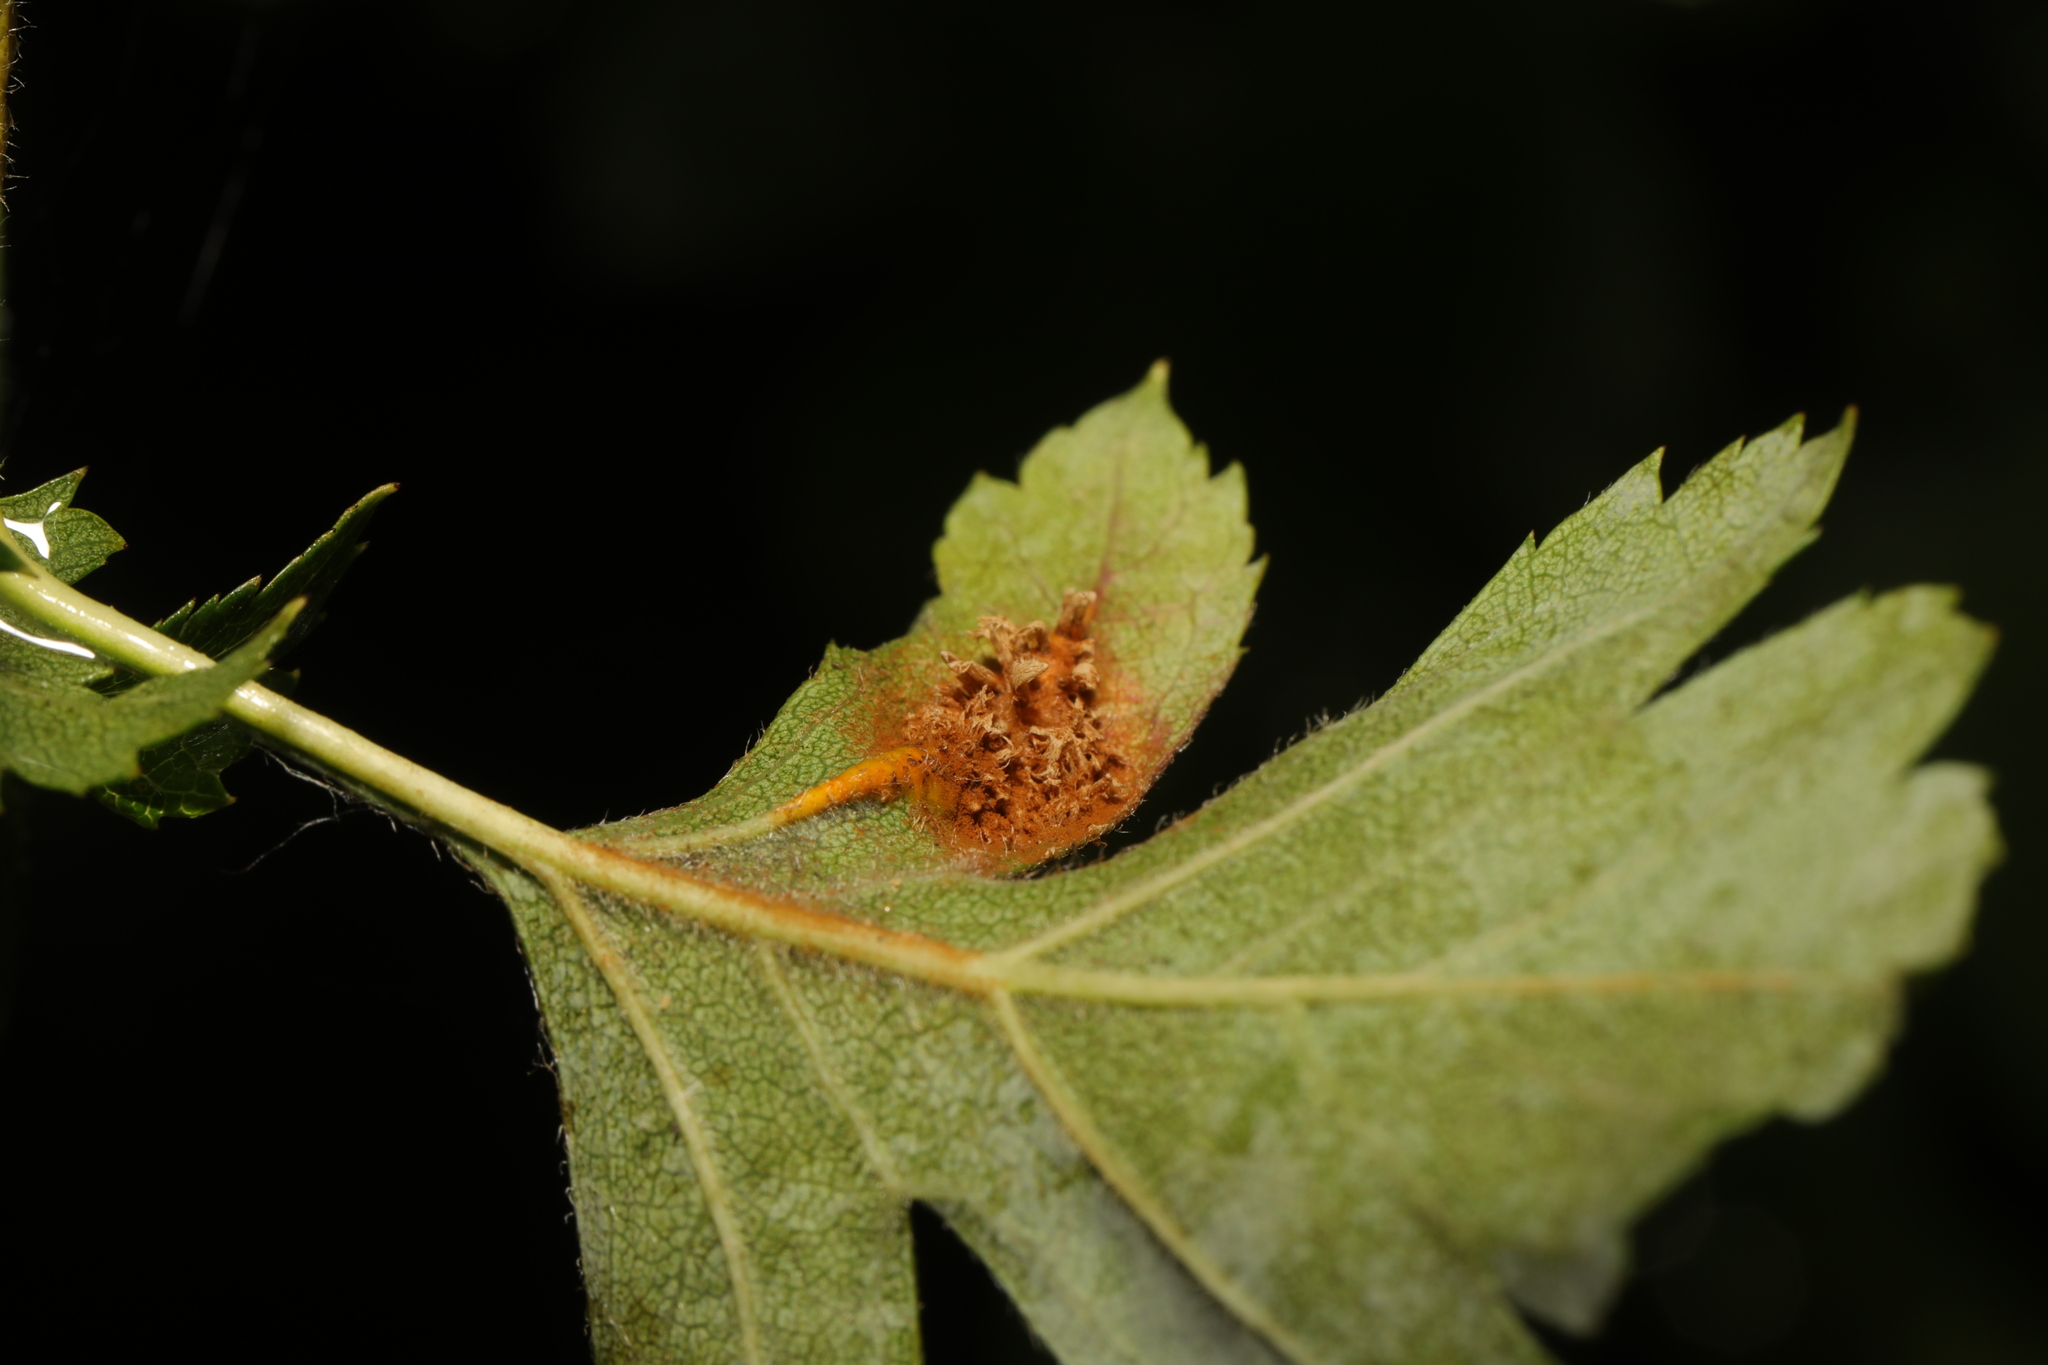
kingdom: Fungi
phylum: Basidiomycota
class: Pucciniomycetes
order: Pucciniales
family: Gymnosporangiaceae
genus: Gymnosporangium
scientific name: Gymnosporangium clavariiforme
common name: Tongues of fire
